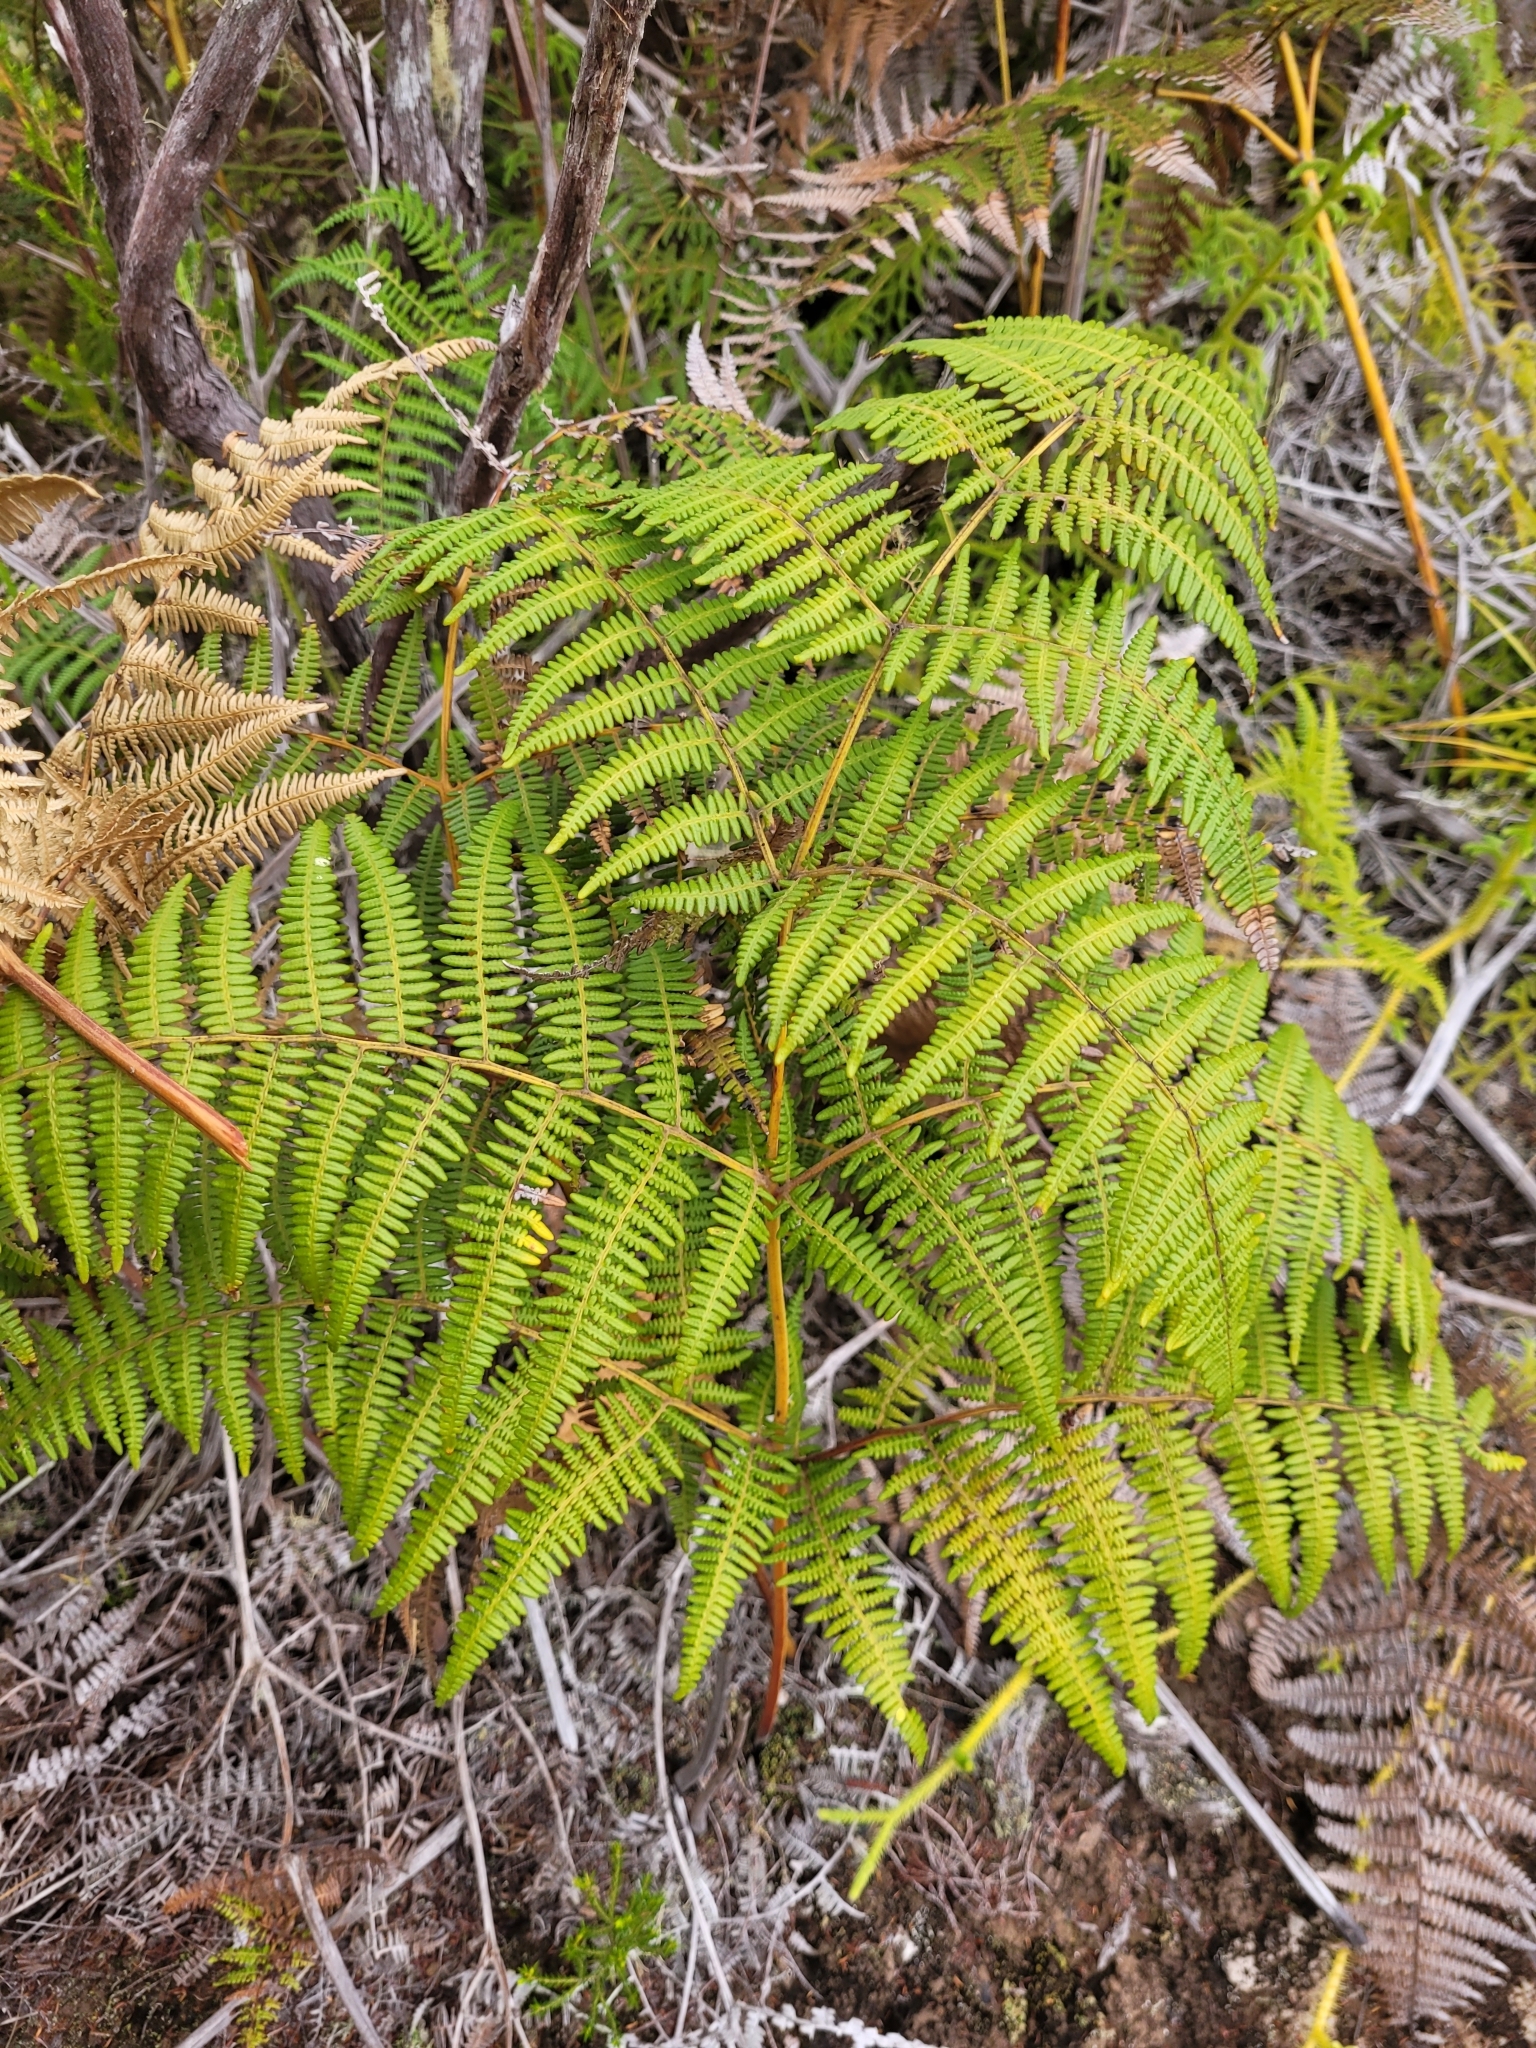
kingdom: Plantae
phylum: Tracheophyta
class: Polypodiopsida
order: Polypodiales
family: Dennstaedtiaceae
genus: Pteridium
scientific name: Pteridium aquilinum
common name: Bracken
